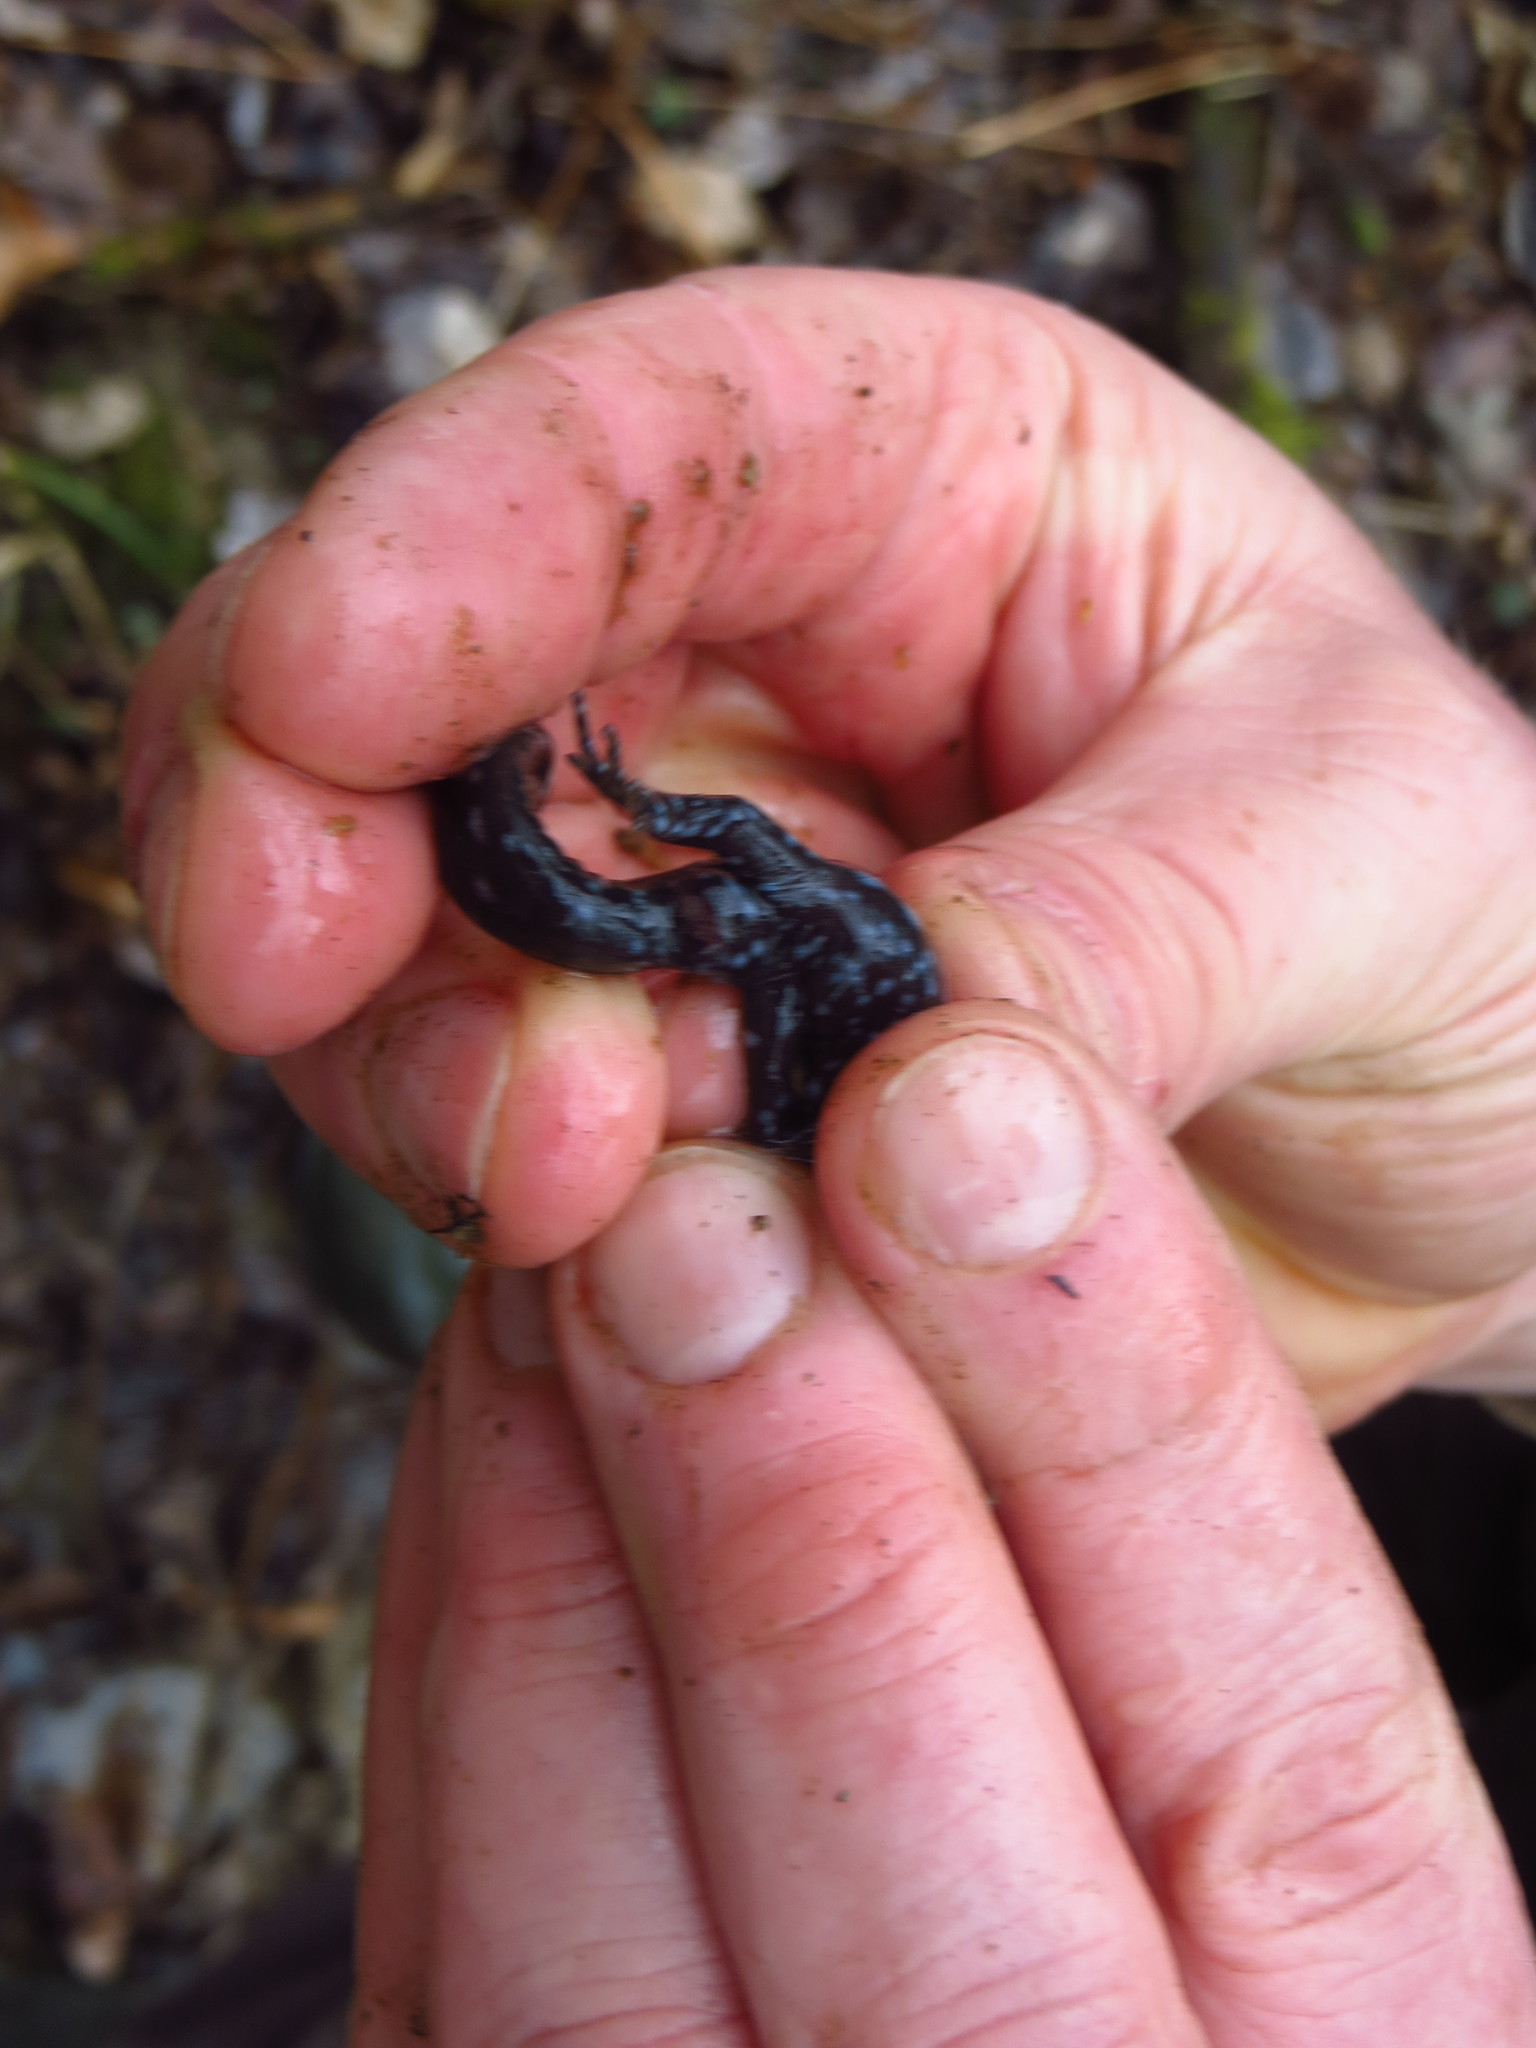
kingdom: Animalia
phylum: Chordata
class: Amphibia
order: Caudata
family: Ambystomatidae
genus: Ambystoma
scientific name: Ambystoma unisexual
